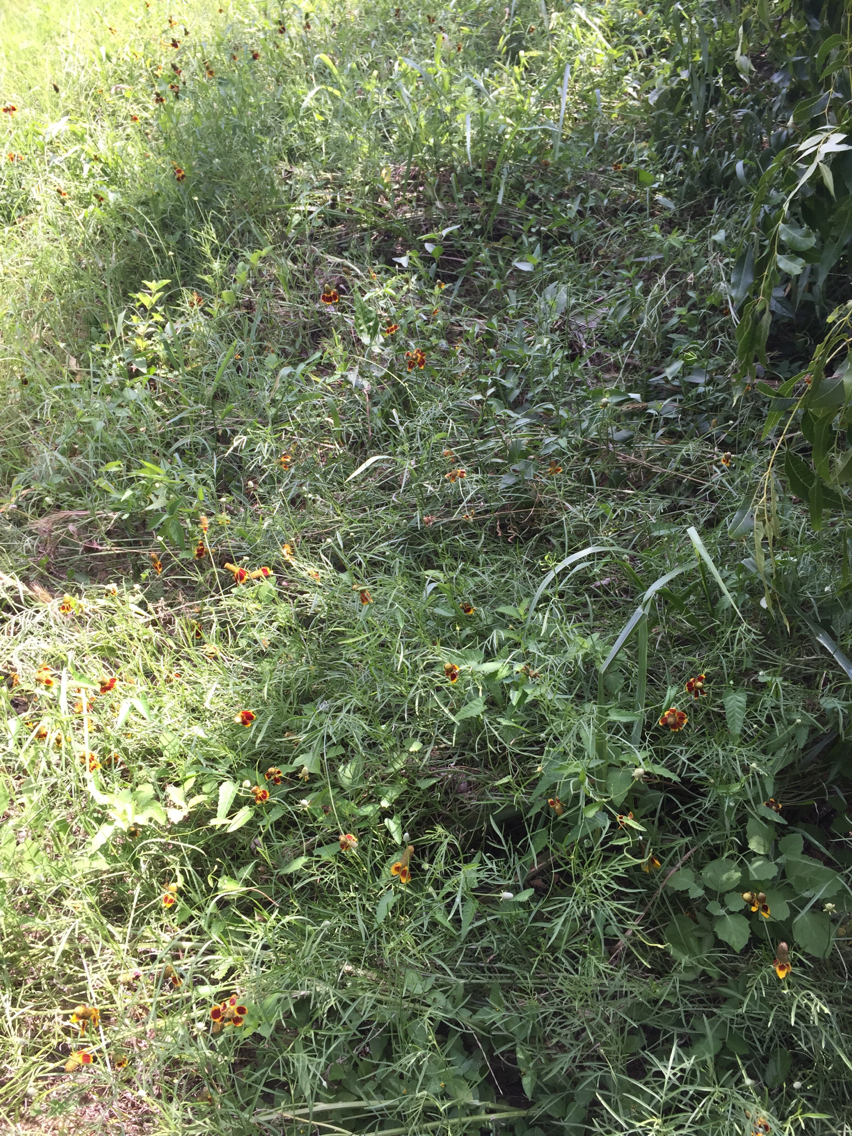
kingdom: Plantae
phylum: Tracheophyta
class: Magnoliopsida
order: Asterales
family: Asteraceae
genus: Ratibida
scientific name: Ratibida columnifera
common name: Prairie coneflower
